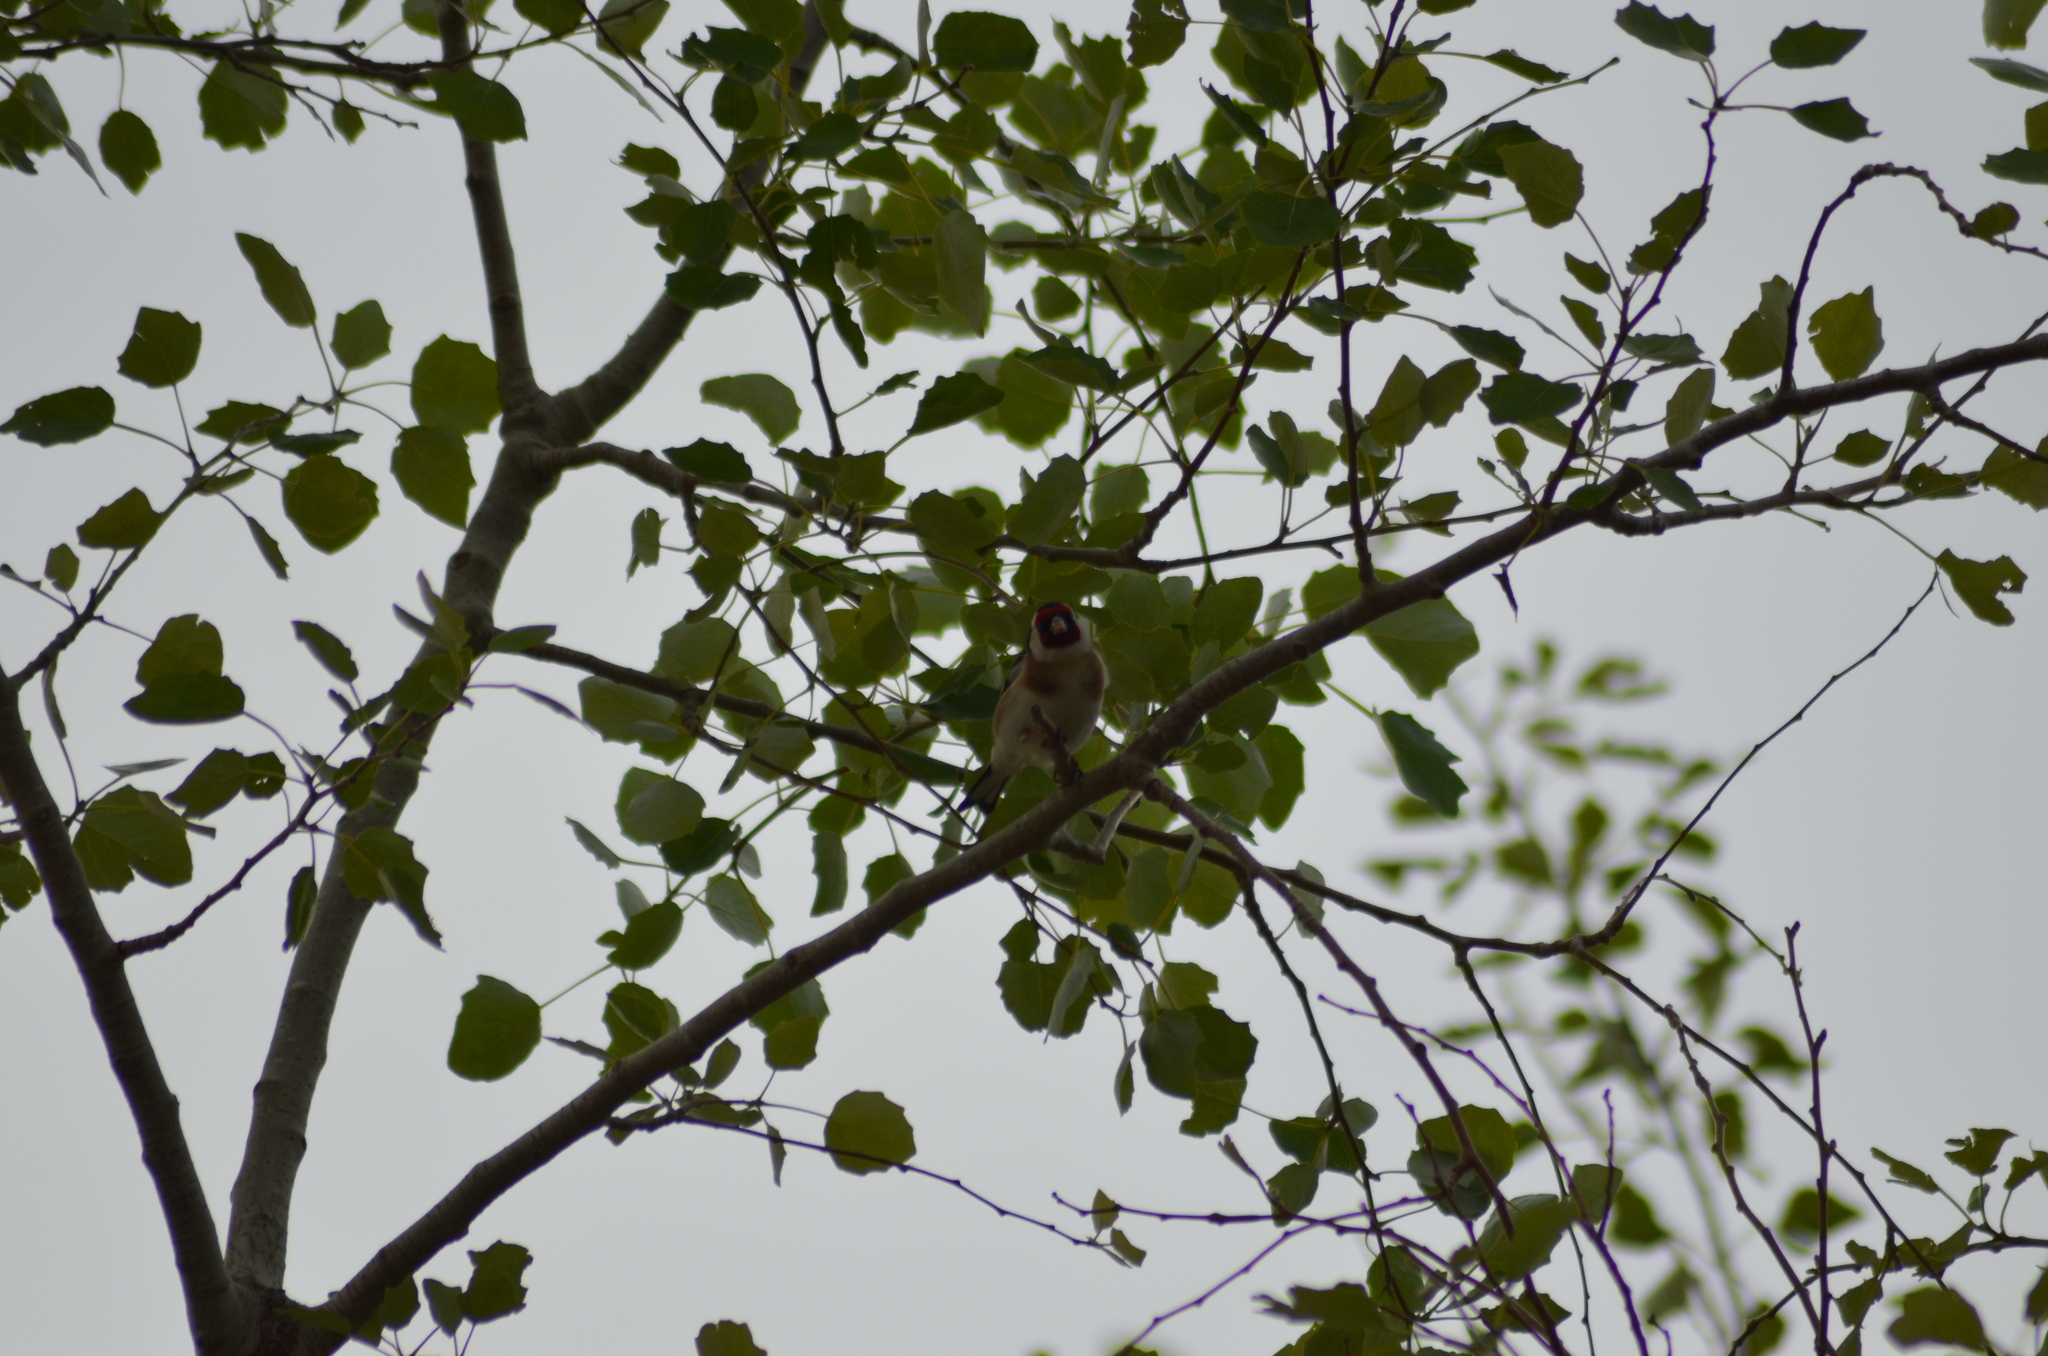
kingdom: Animalia
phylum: Chordata
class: Aves
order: Passeriformes
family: Fringillidae
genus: Carduelis
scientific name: Carduelis carduelis
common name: European goldfinch
